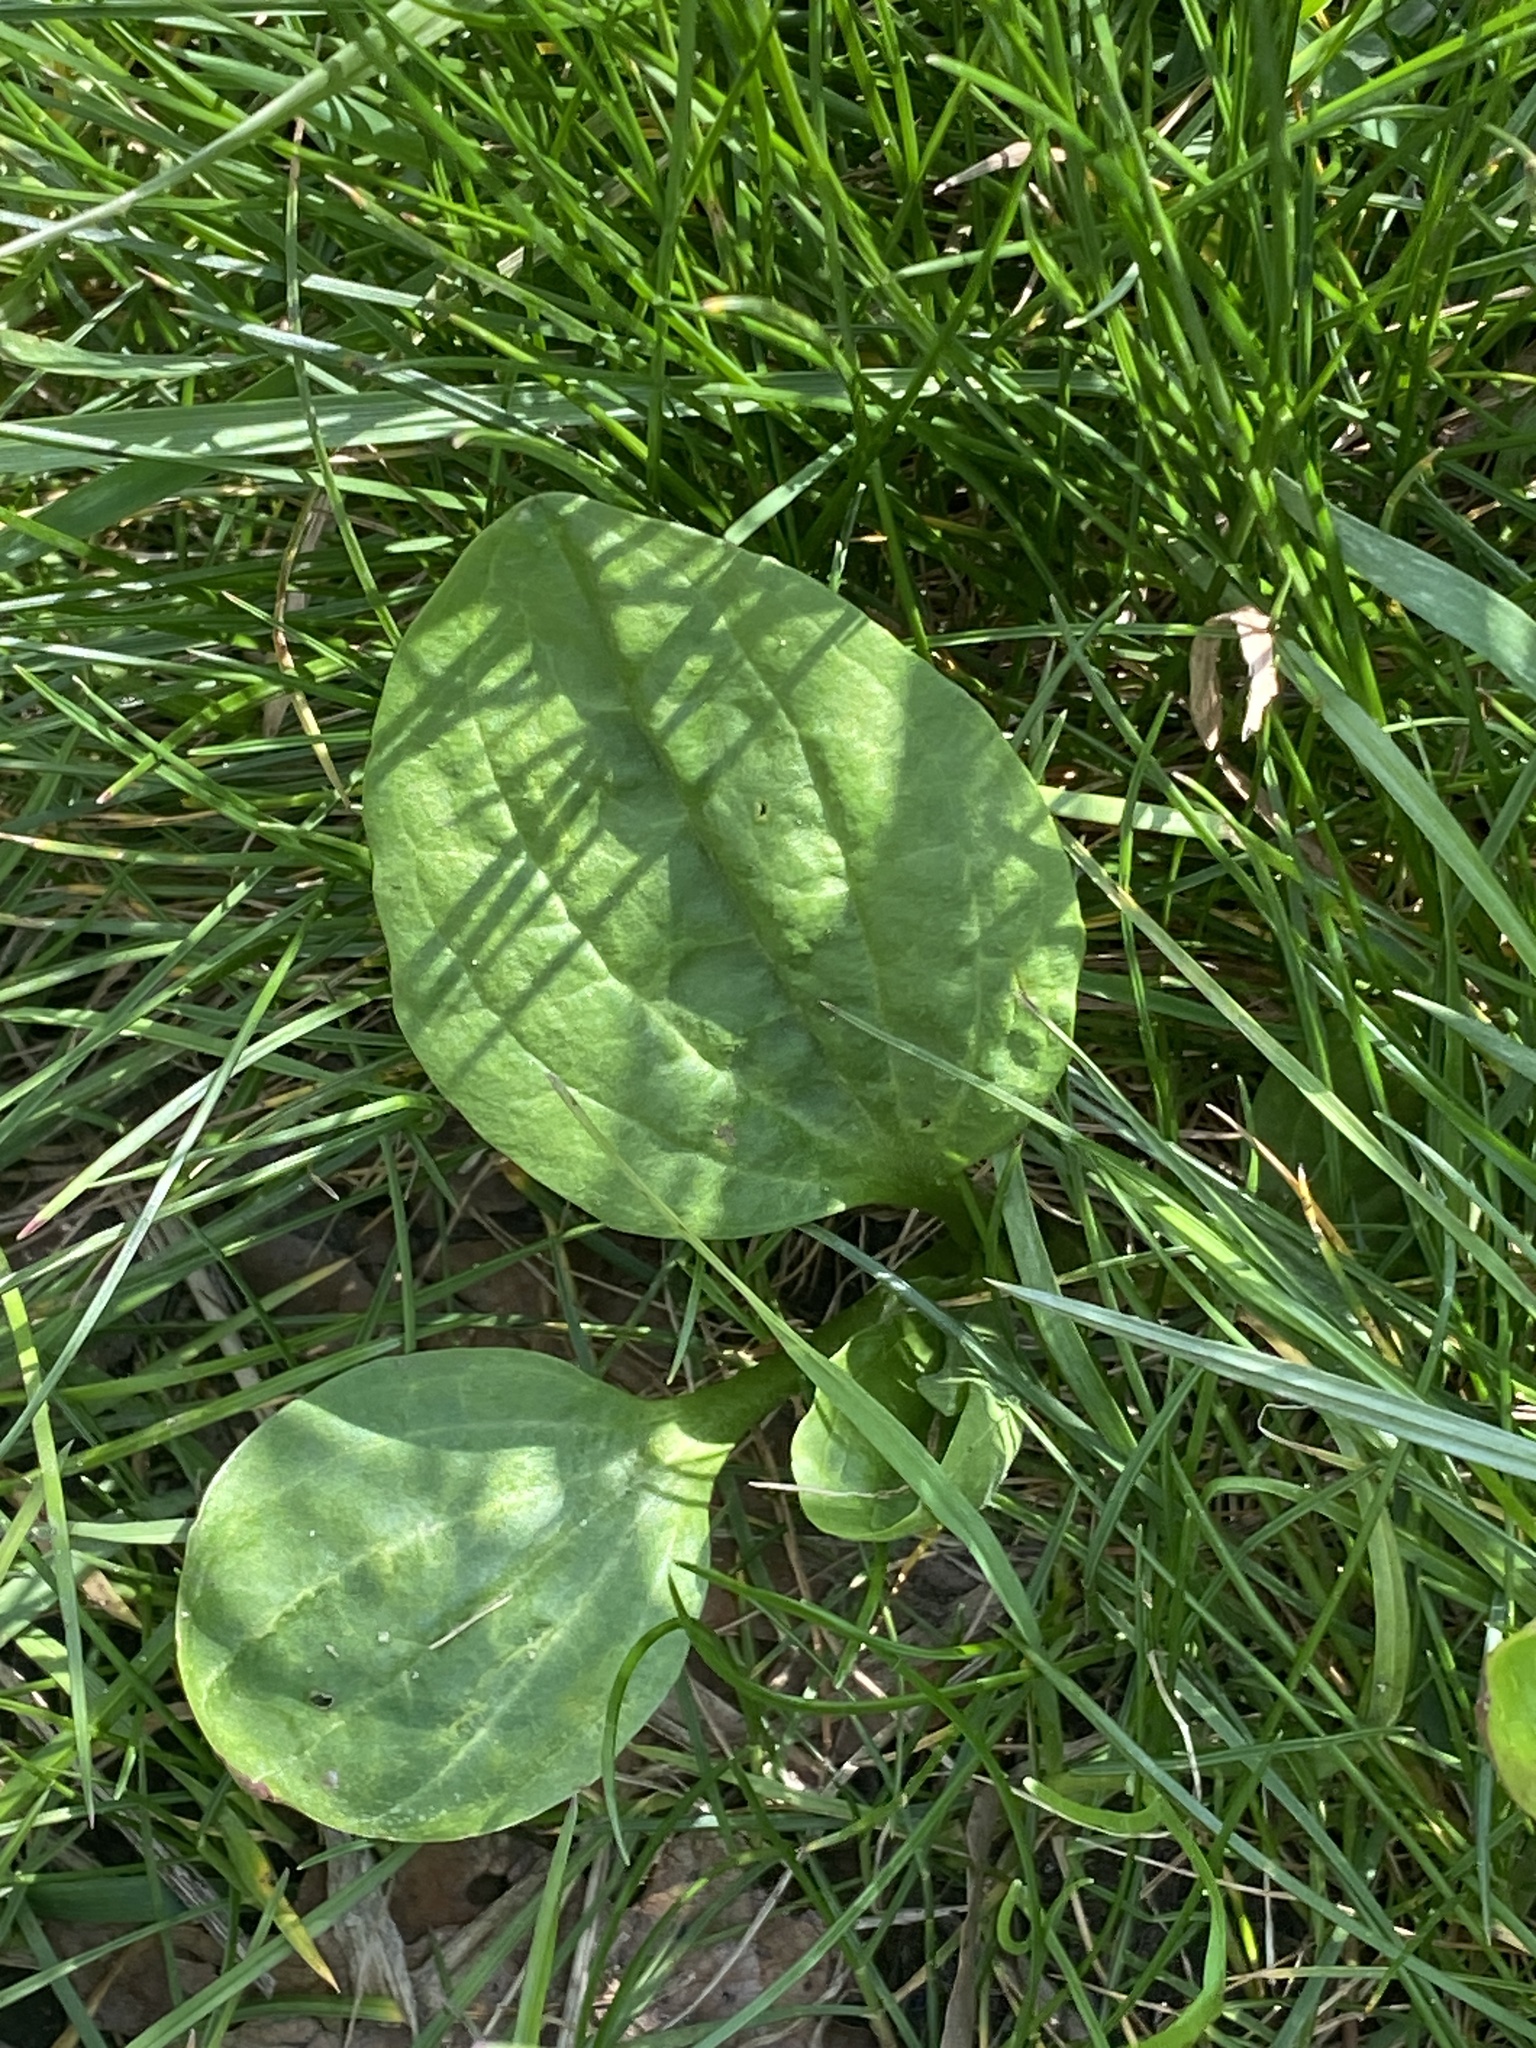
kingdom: Plantae
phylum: Tracheophyta
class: Magnoliopsida
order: Lamiales
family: Plantaginaceae
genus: Plantago
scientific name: Plantago major
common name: Common plantain
